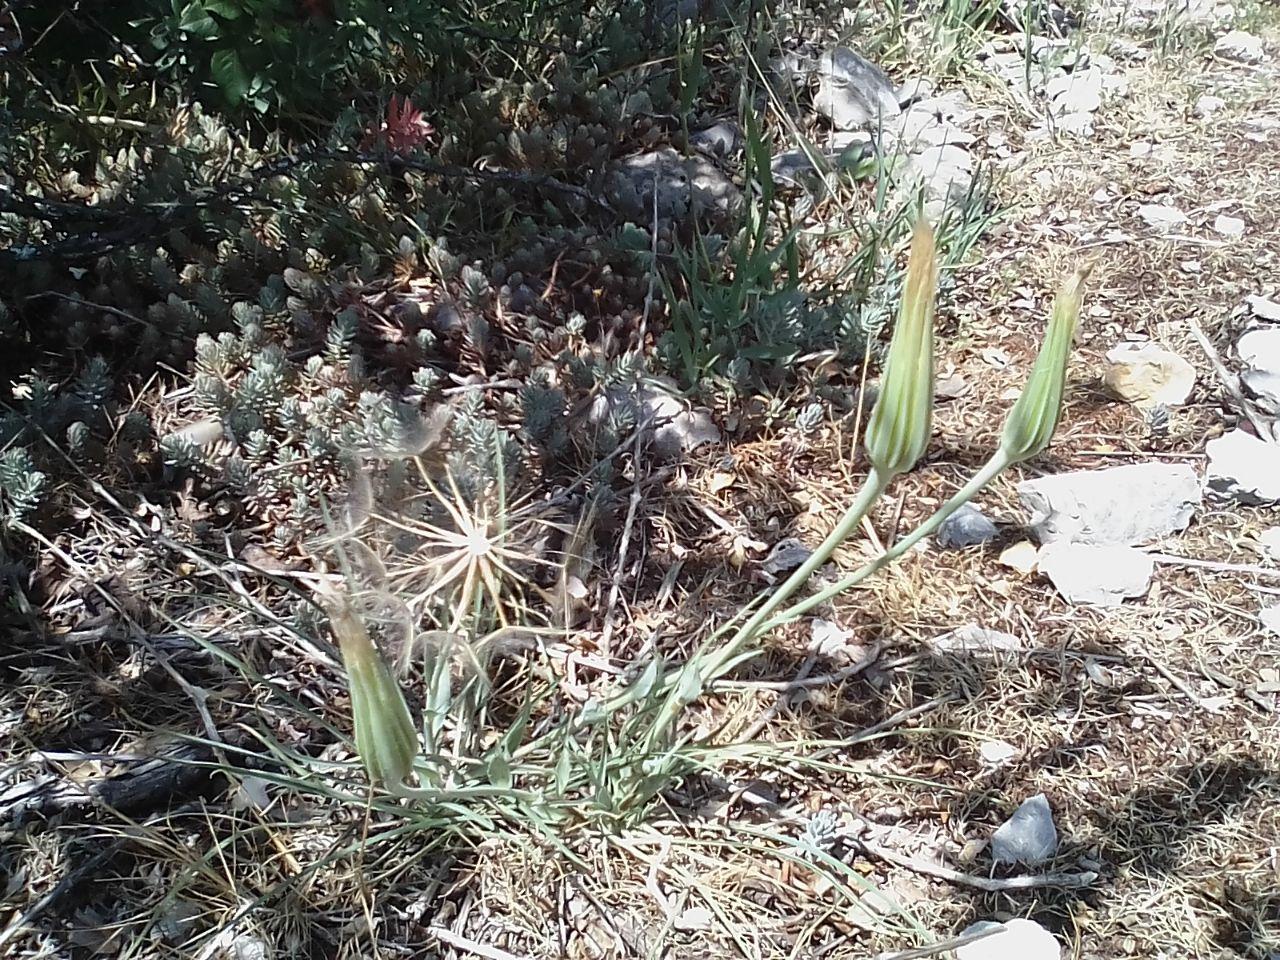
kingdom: Plantae
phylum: Tracheophyta
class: Magnoliopsida
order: Asterales
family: Asteraceae
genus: Tragopogon
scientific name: Tragopogon dubius
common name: Yellow salsify
